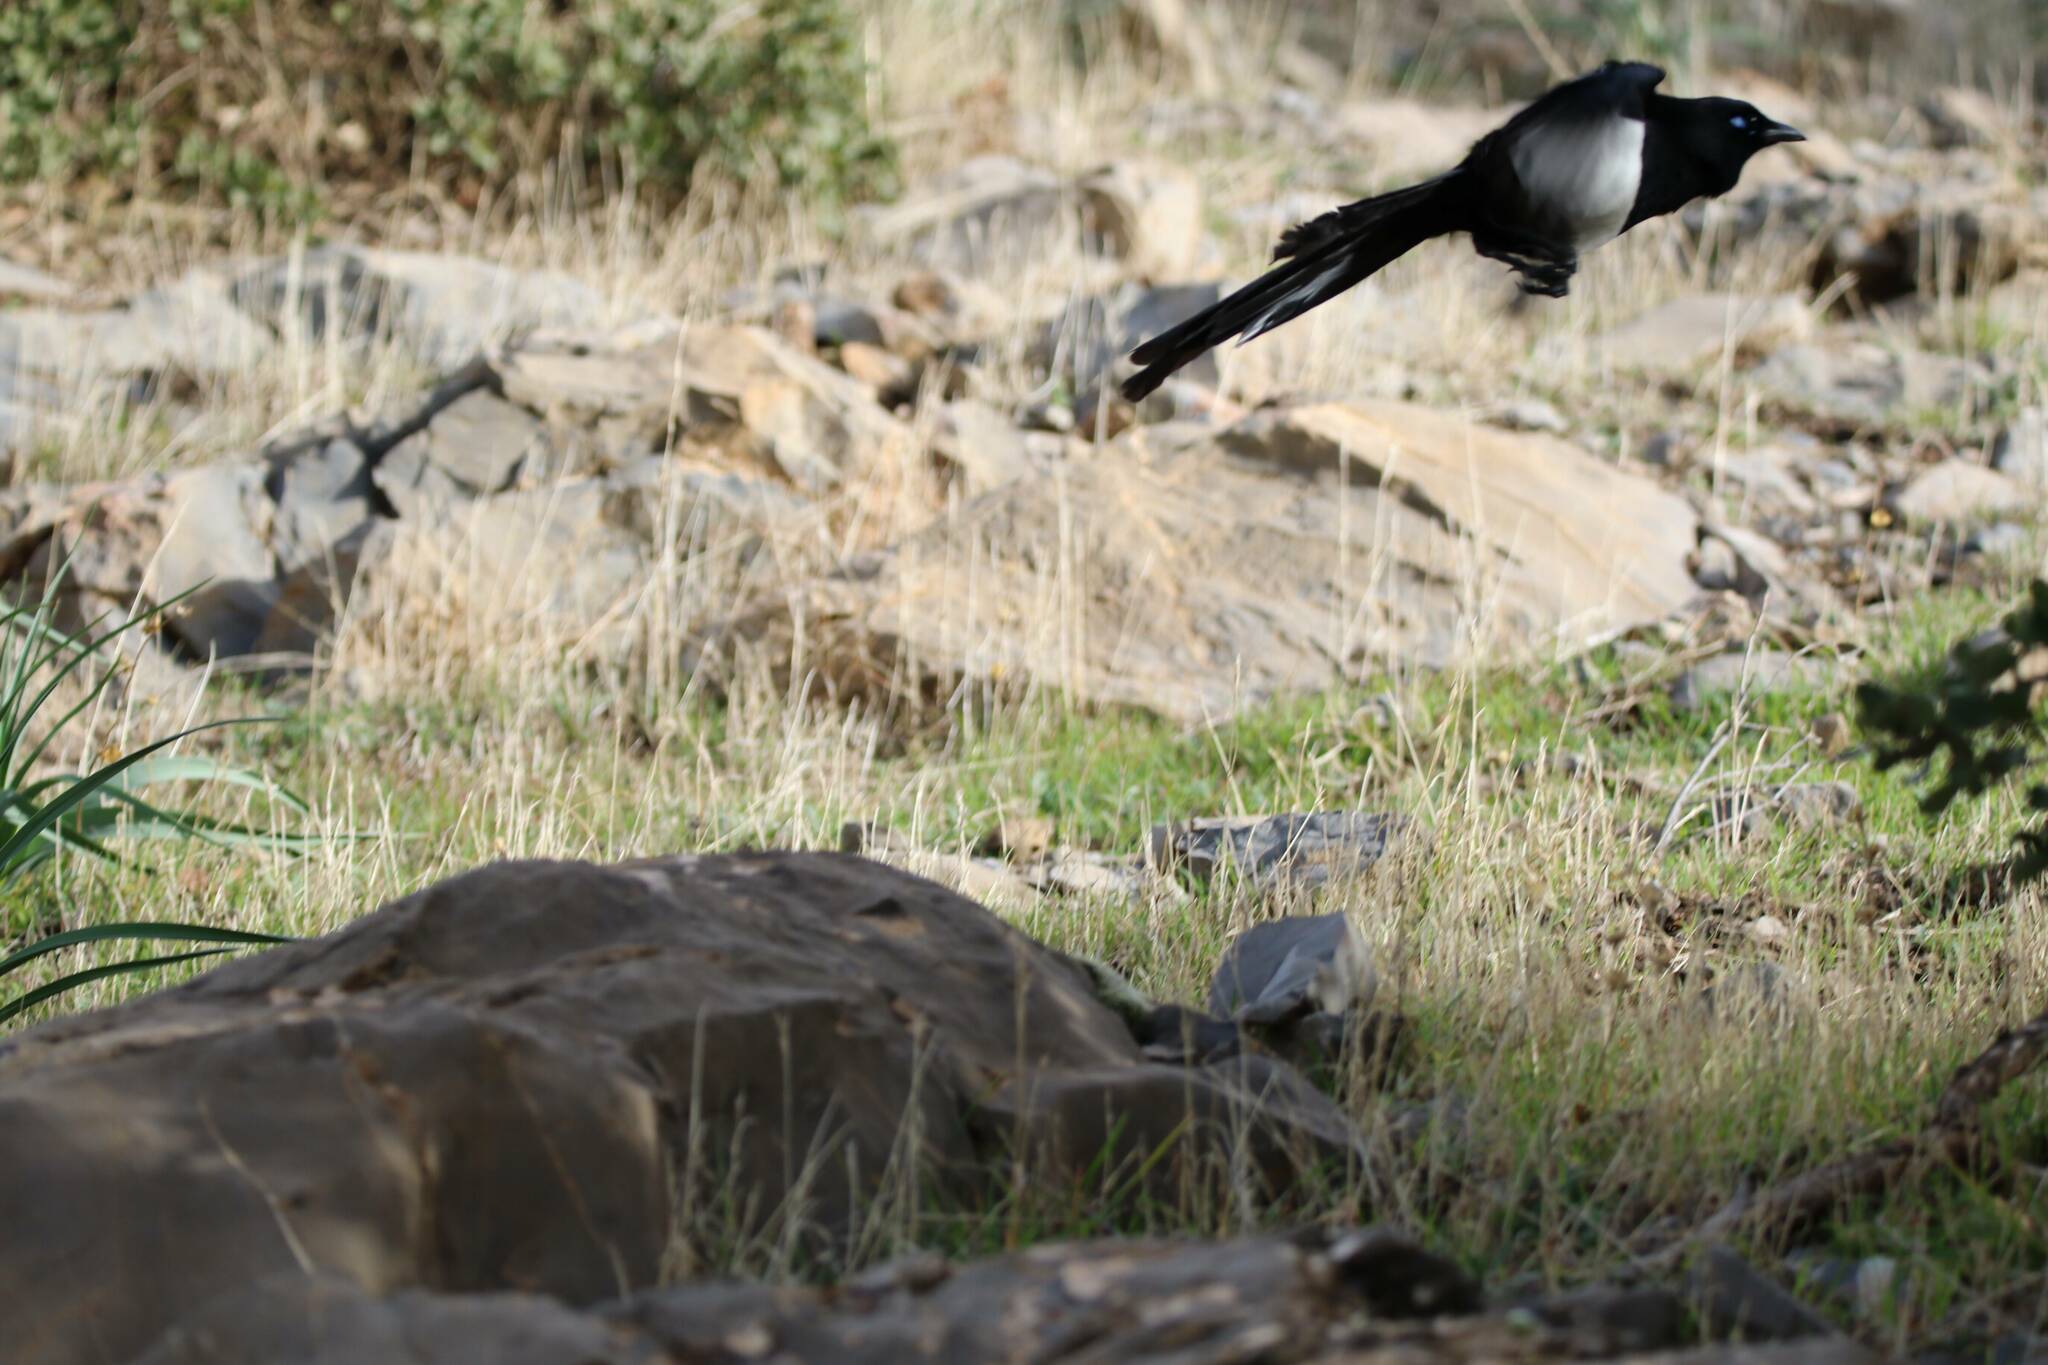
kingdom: Animalia
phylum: Chordata
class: Aves
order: Passeriformes
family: Corvidae
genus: Pica
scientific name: Pica mauritanica
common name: Maghreb magpie
